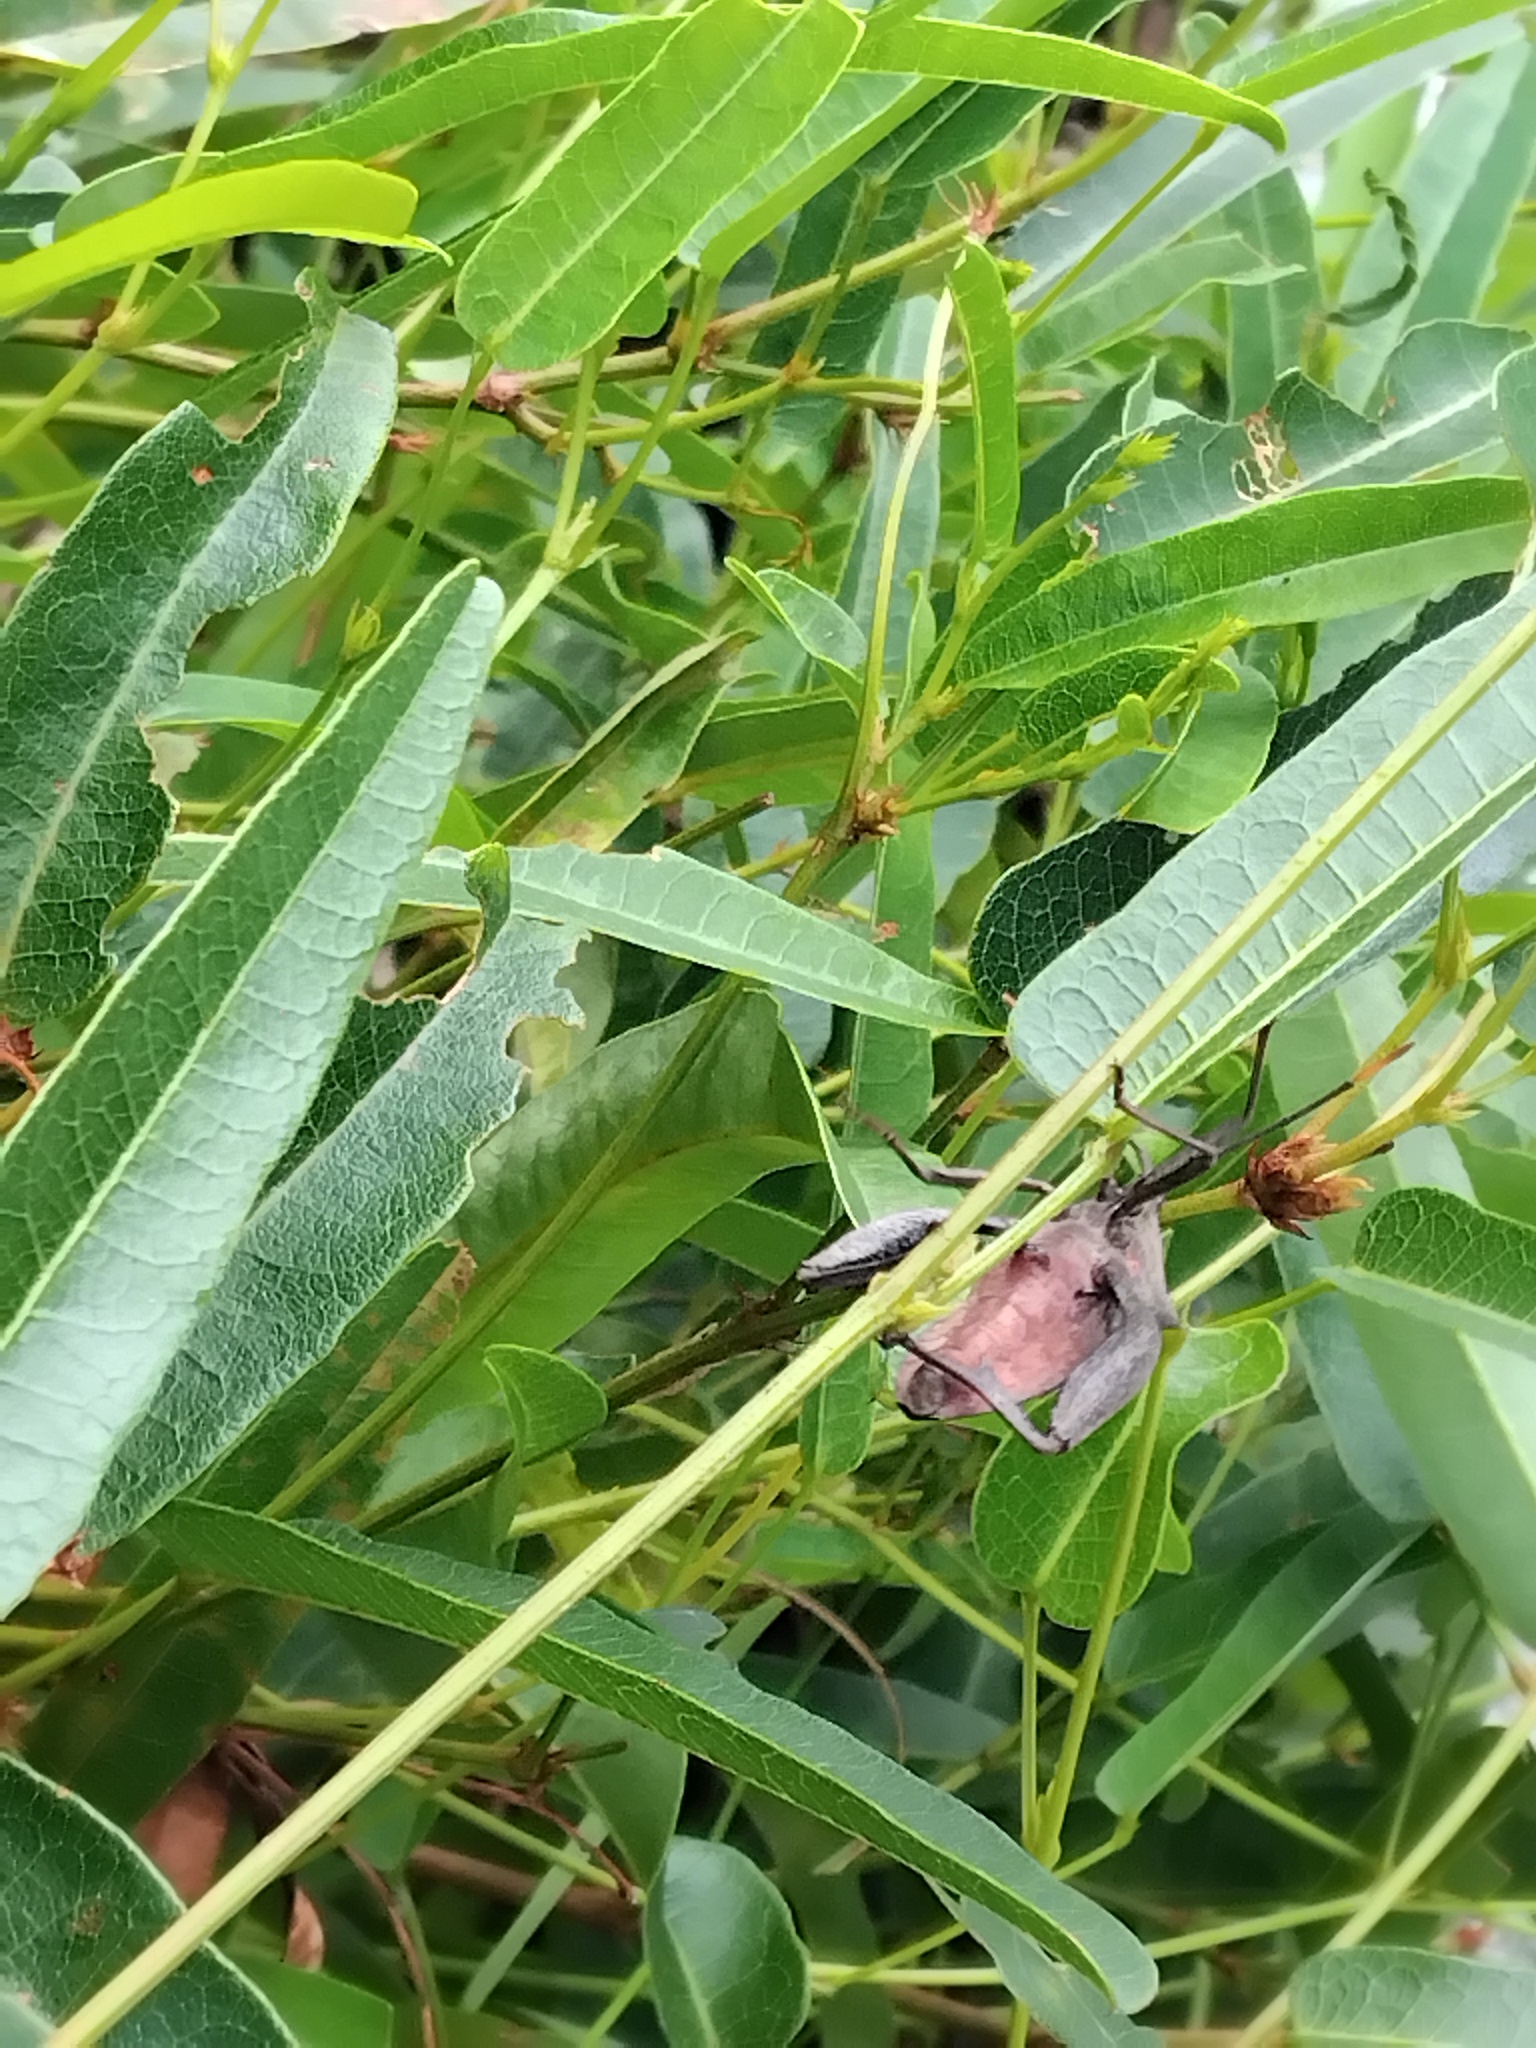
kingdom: Animalia
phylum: Arthropoda
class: Insecta
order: Hemiptera
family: Coreidae
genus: Mictis
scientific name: Mictis profana
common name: Crusader bug
